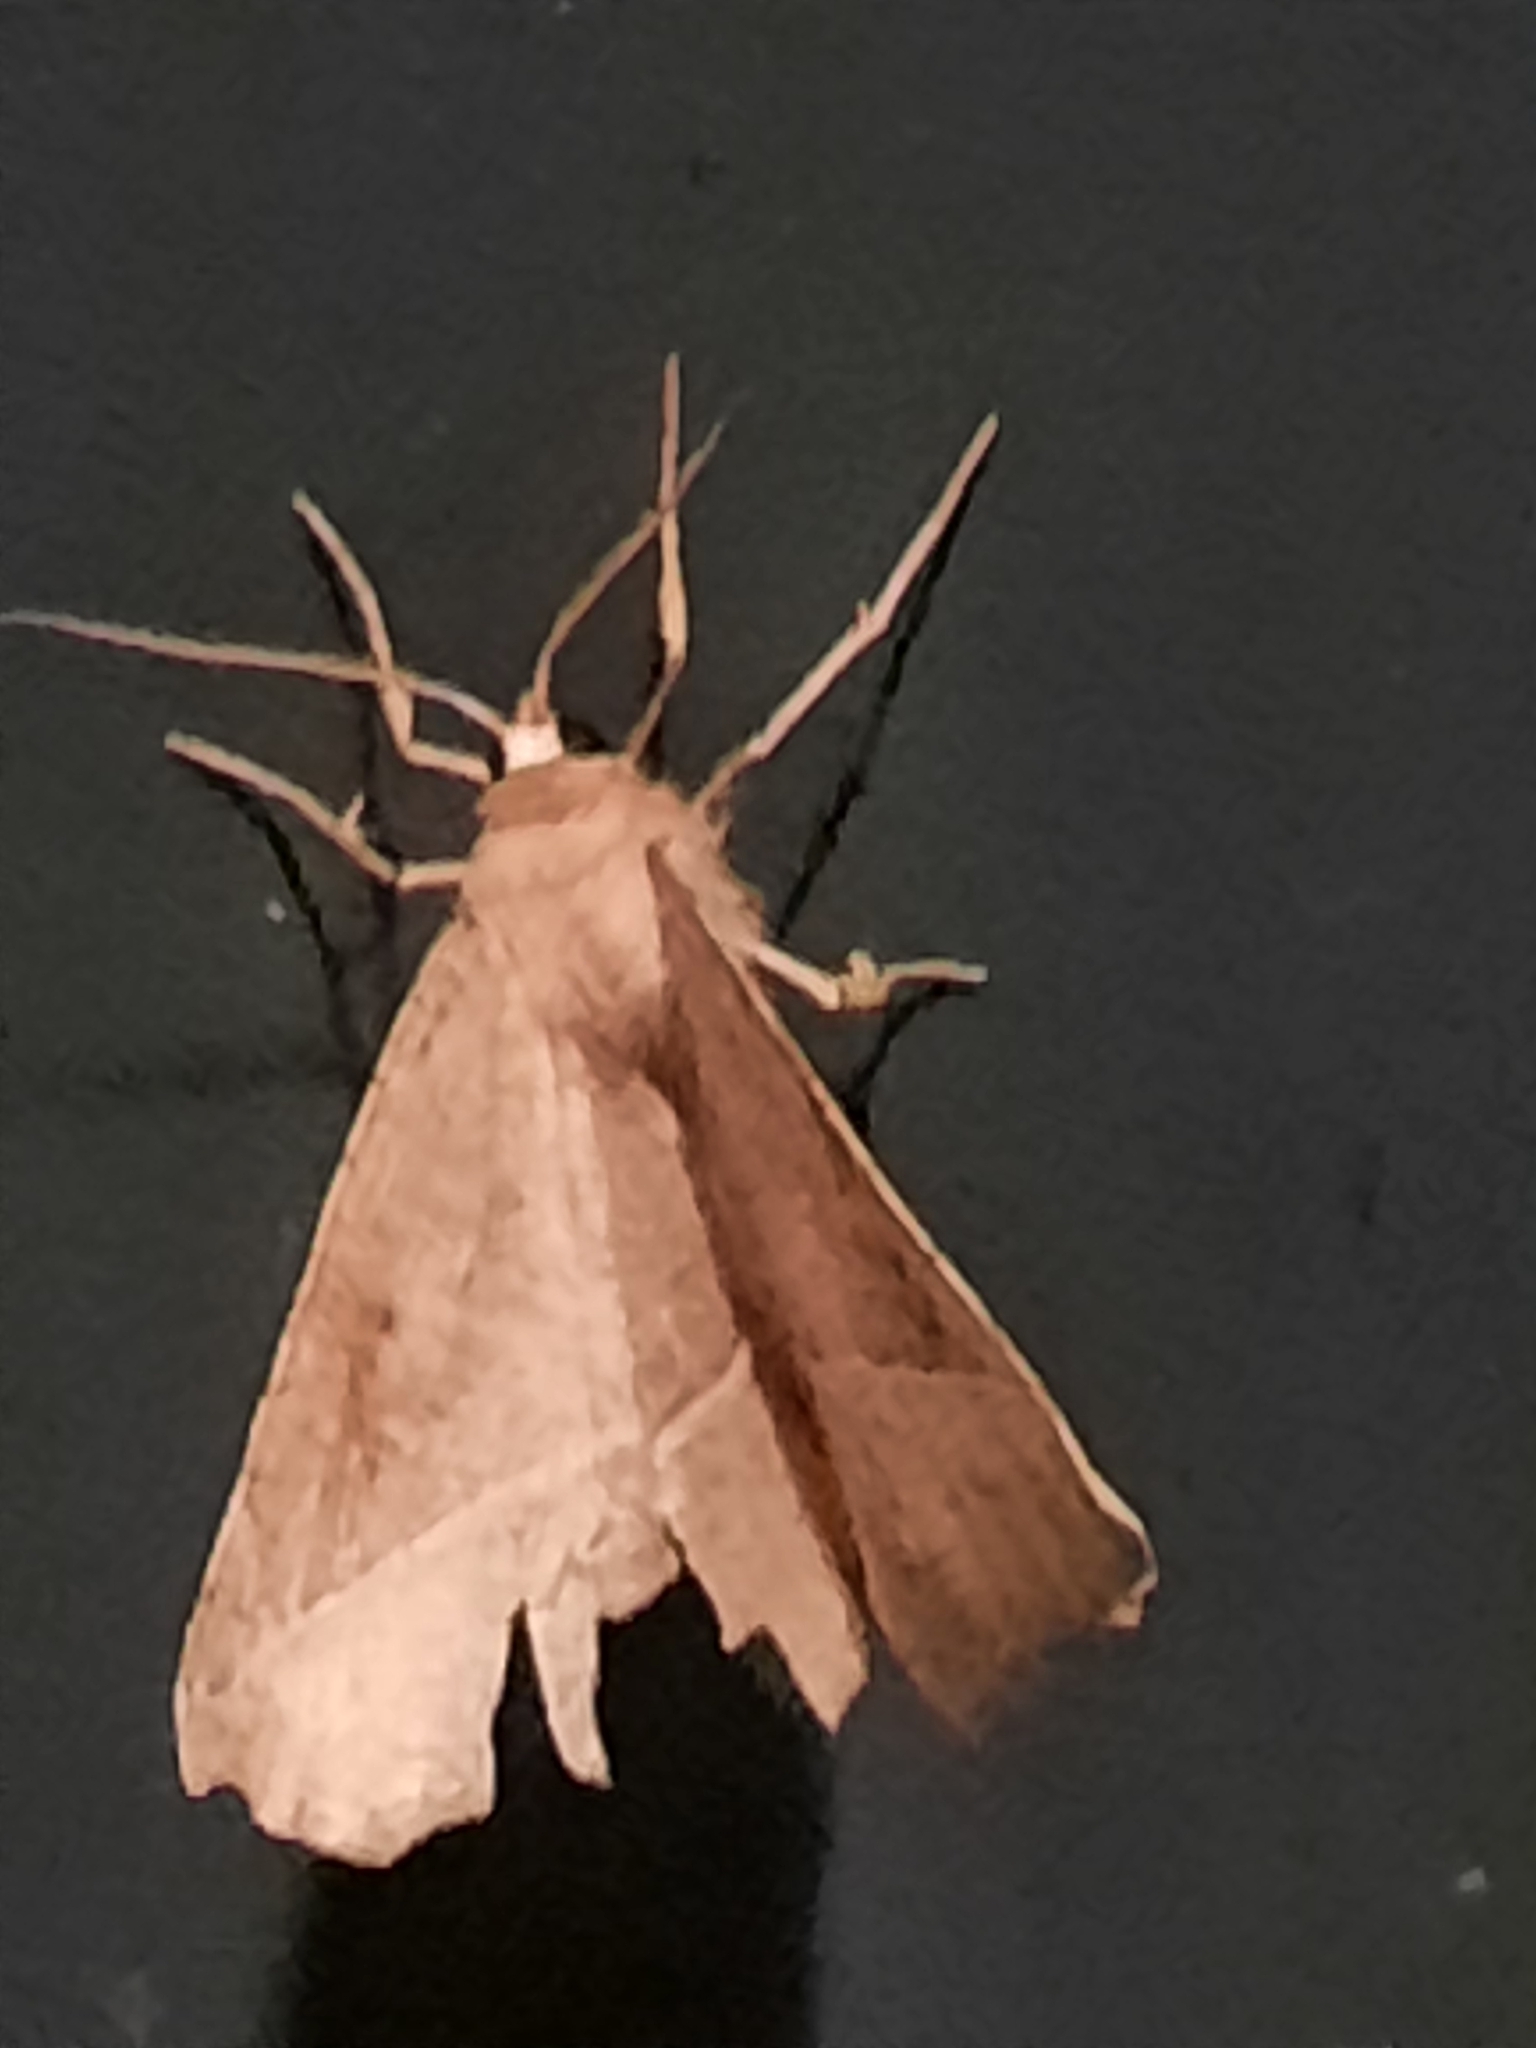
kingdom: Animalia
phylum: Arthropoda
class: Insecta
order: Lepidoptera
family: Geometridae
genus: Eutrapela
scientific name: Eutrapela clemataria
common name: Curved-toothed geometer
